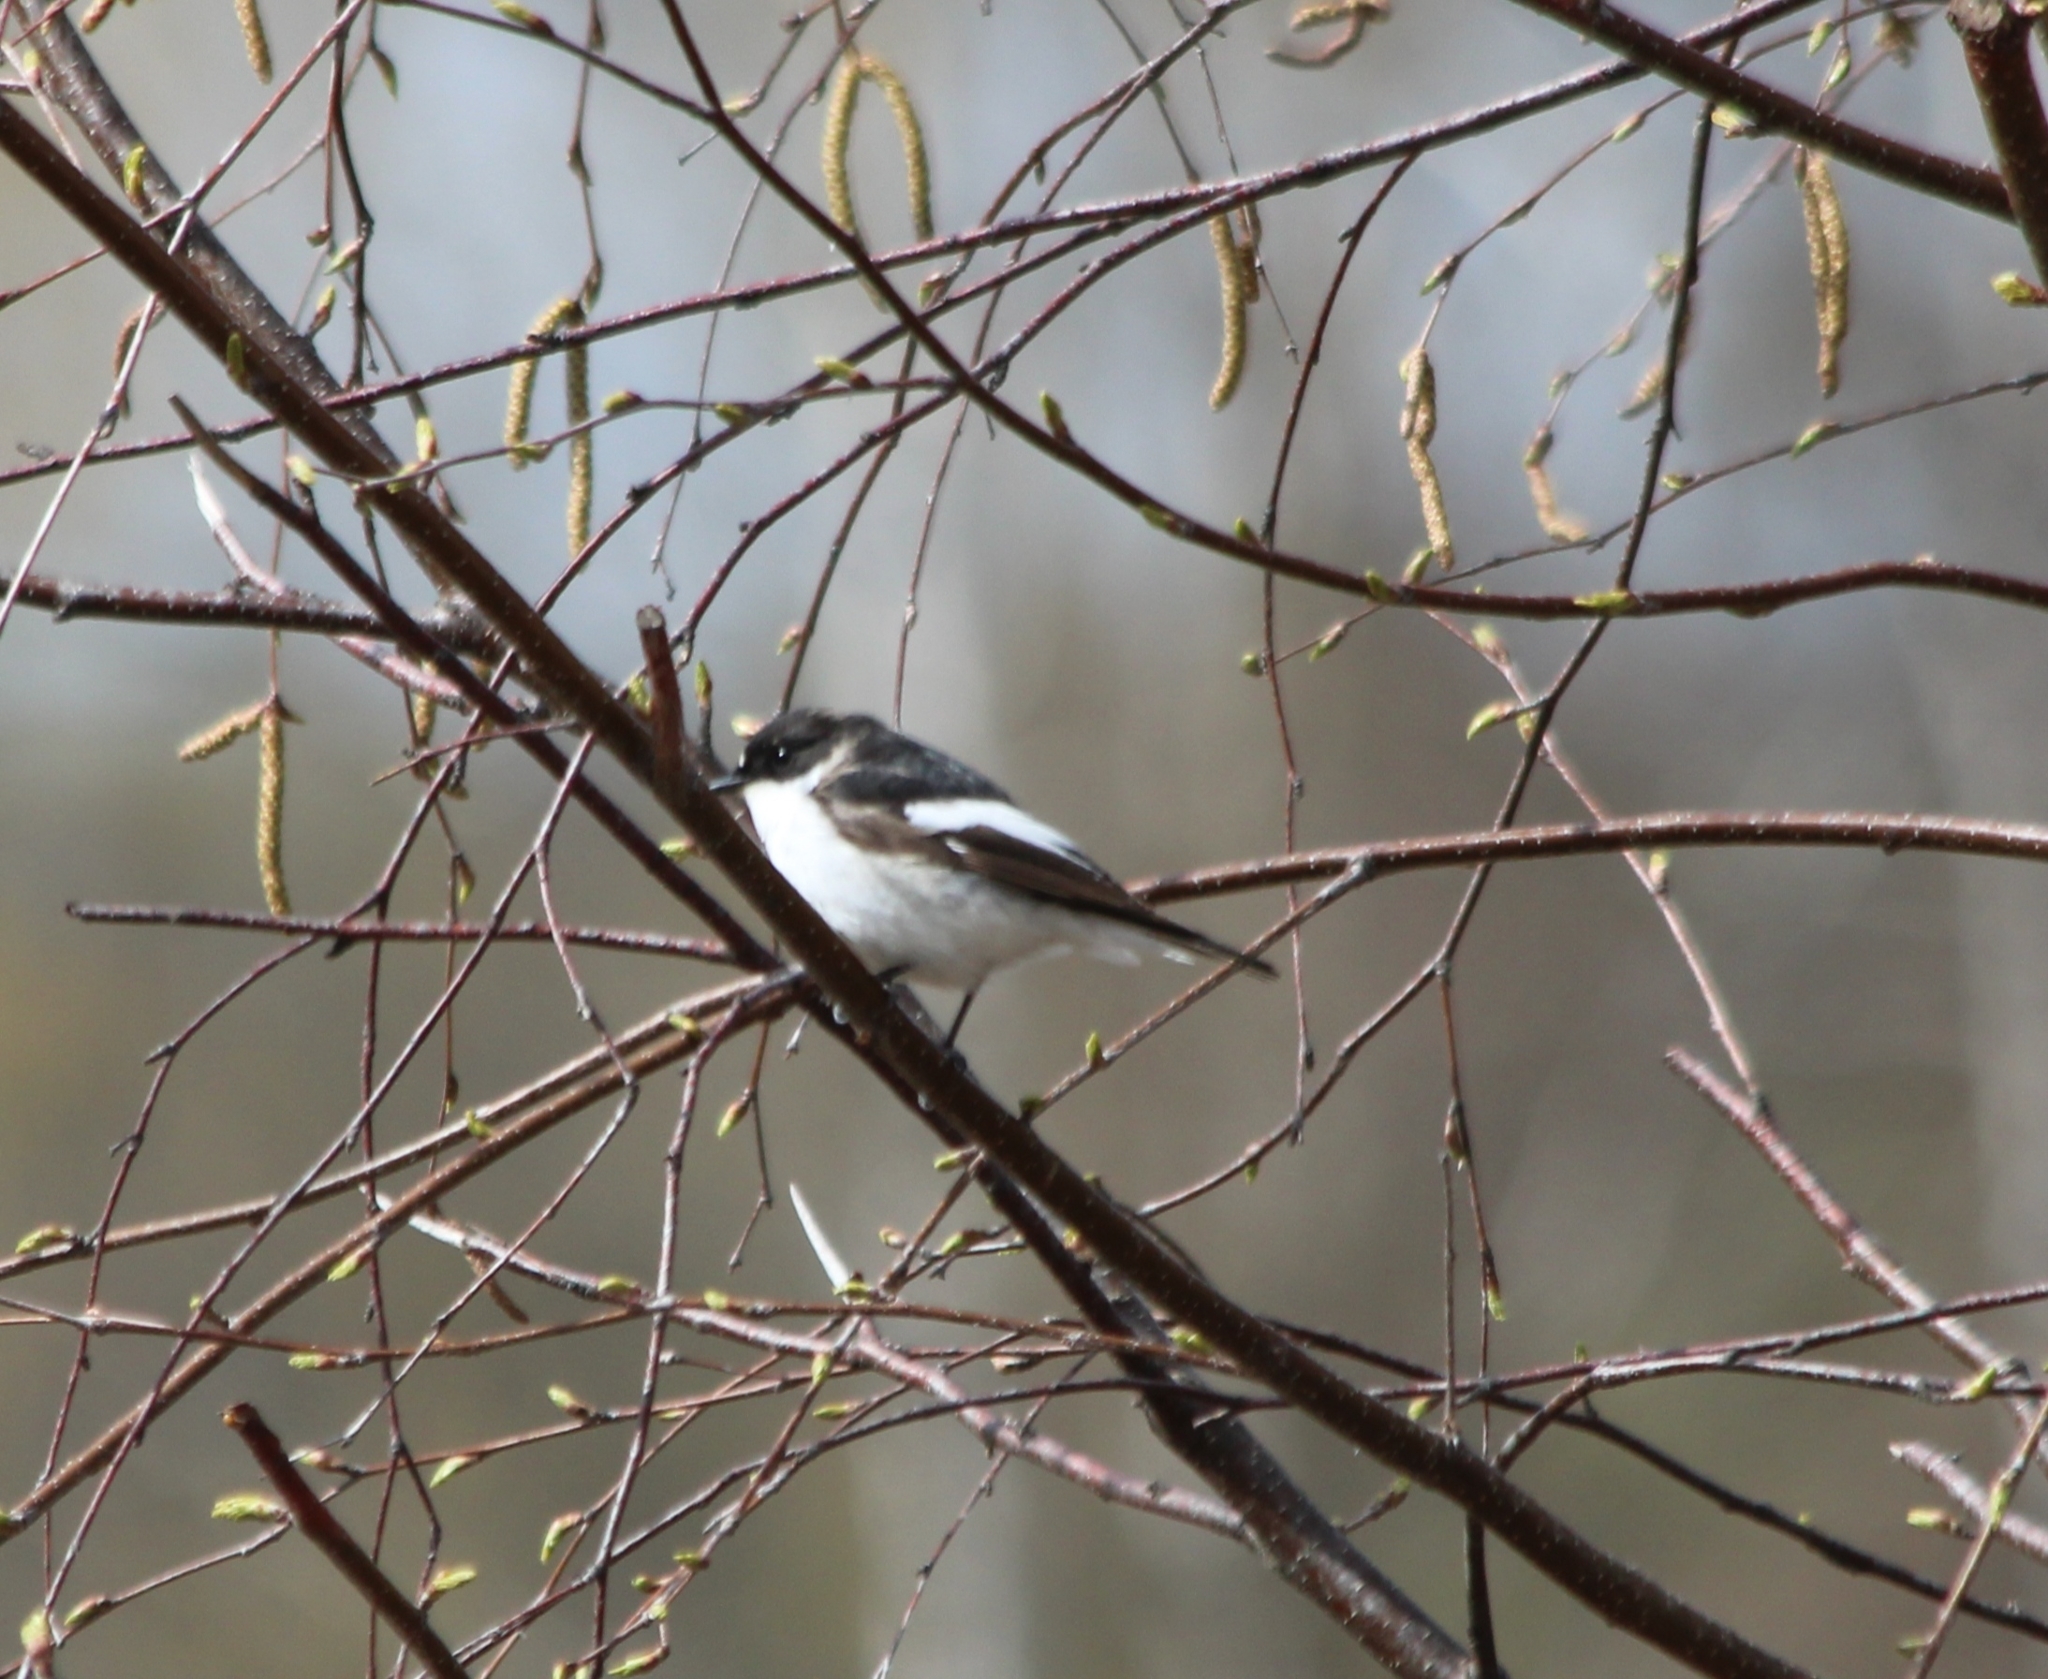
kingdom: Animalia
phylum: Chordata
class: Aves
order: Passeriformes
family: Muscicapidae
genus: Ficedula
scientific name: Ficedula hypoleuca
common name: European pied flycatcher
